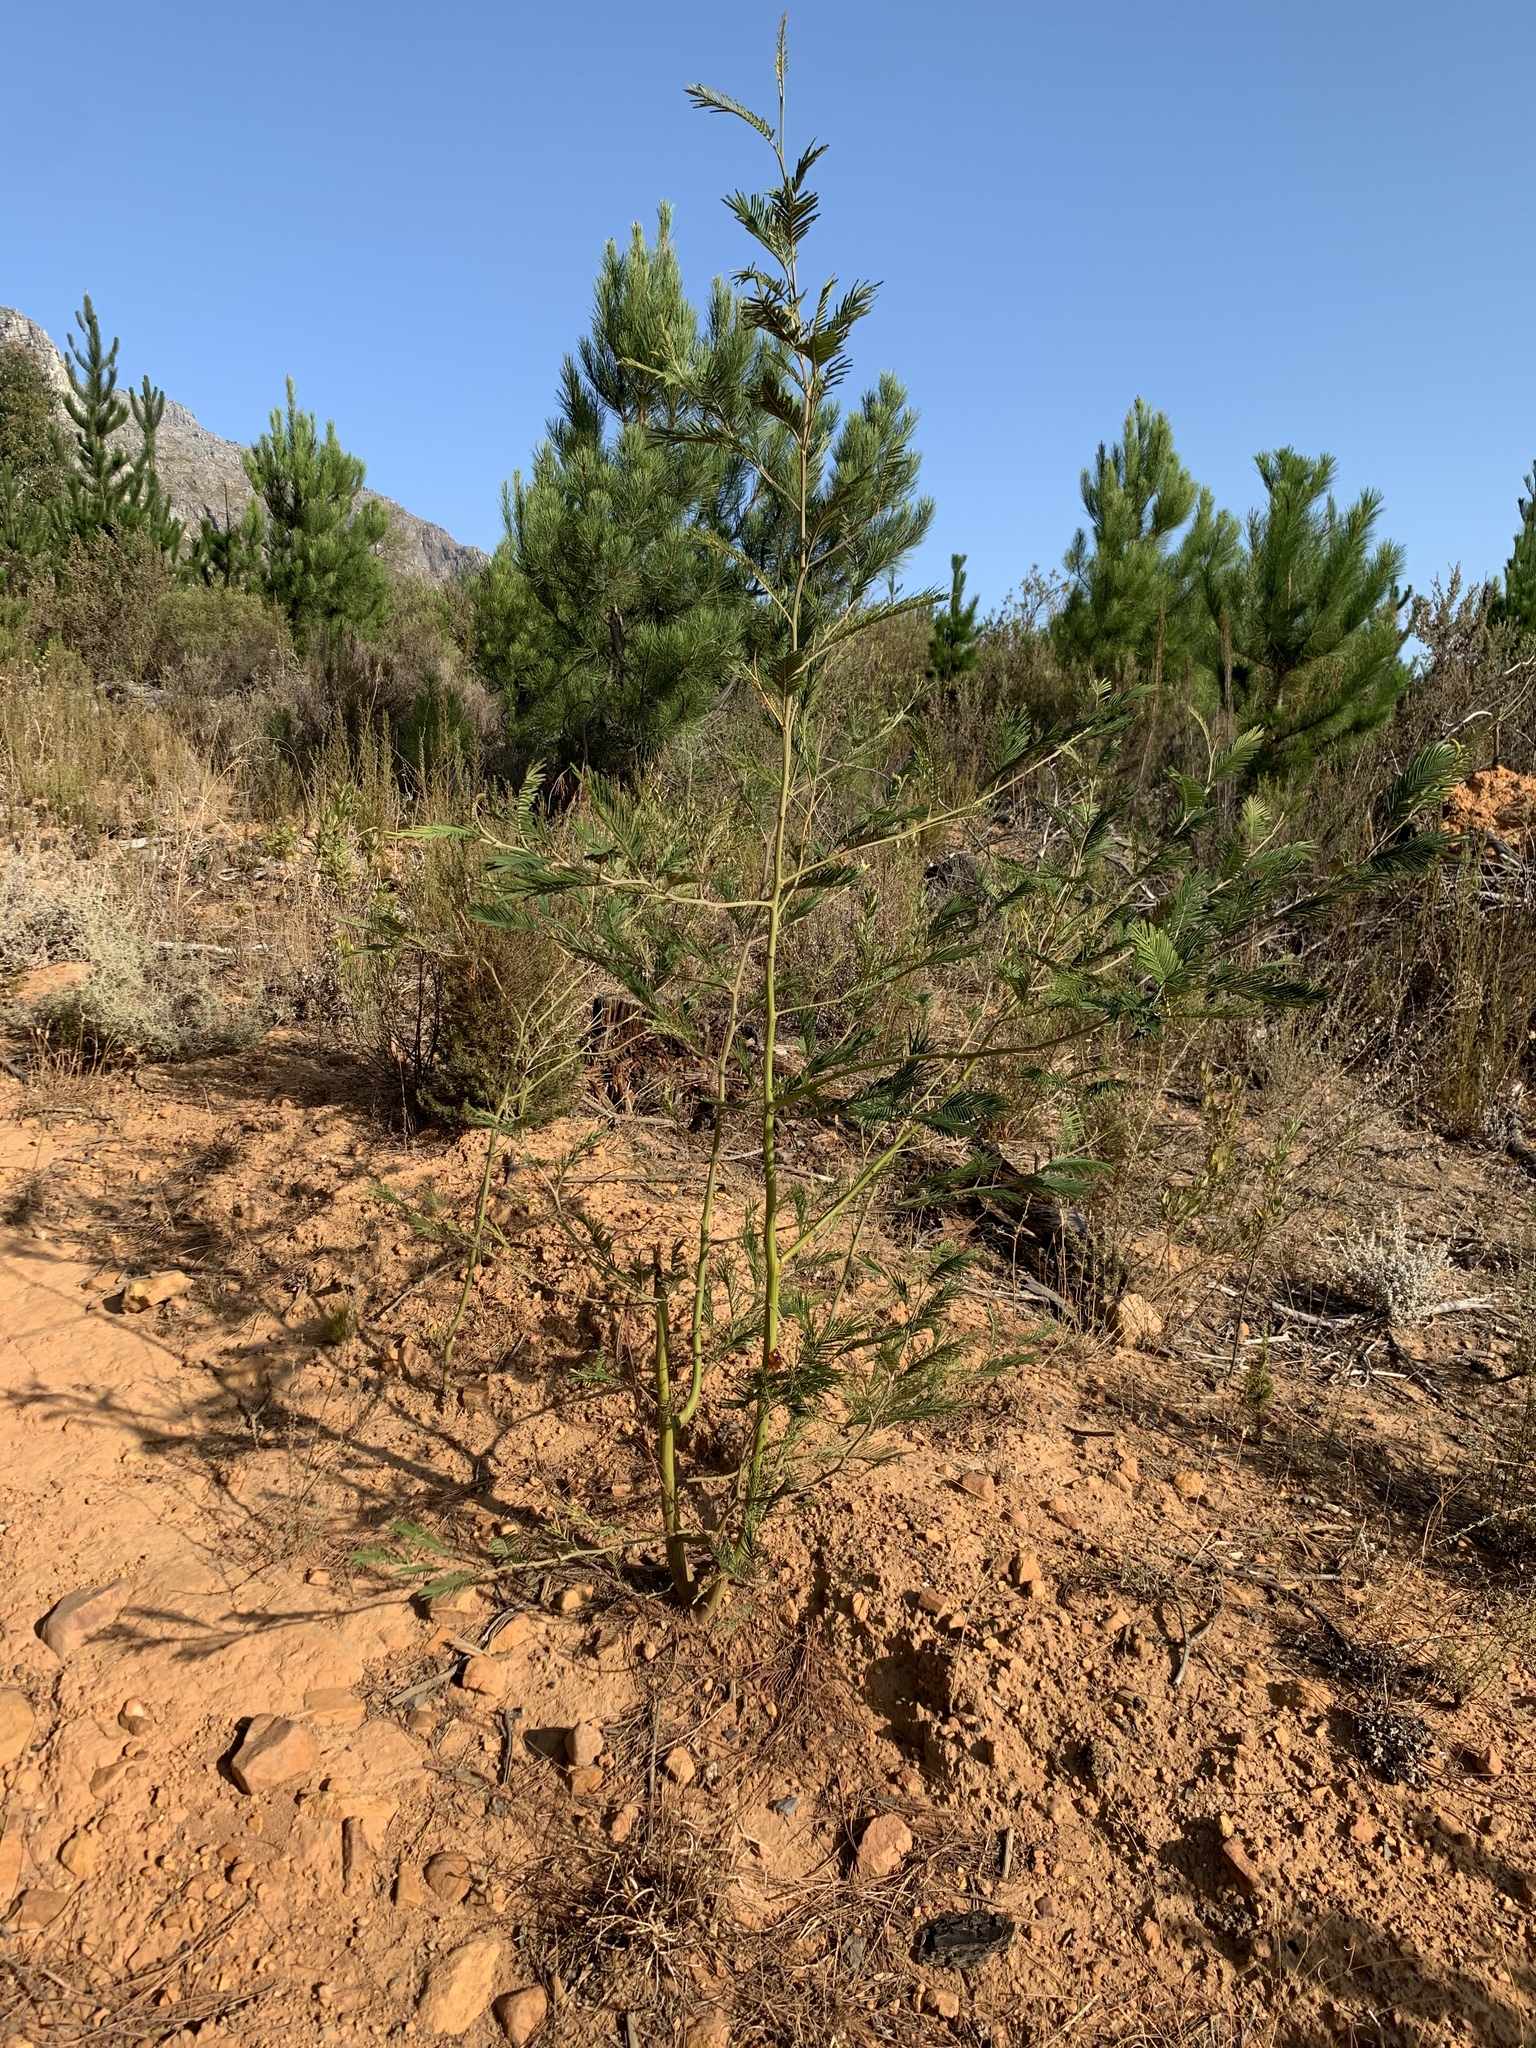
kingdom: Plantae
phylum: Tracheophyta
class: Magnoliopsida
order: Fabales
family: Fabaceae
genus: Acacia
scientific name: Acacia mearnsii
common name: Black wattle
